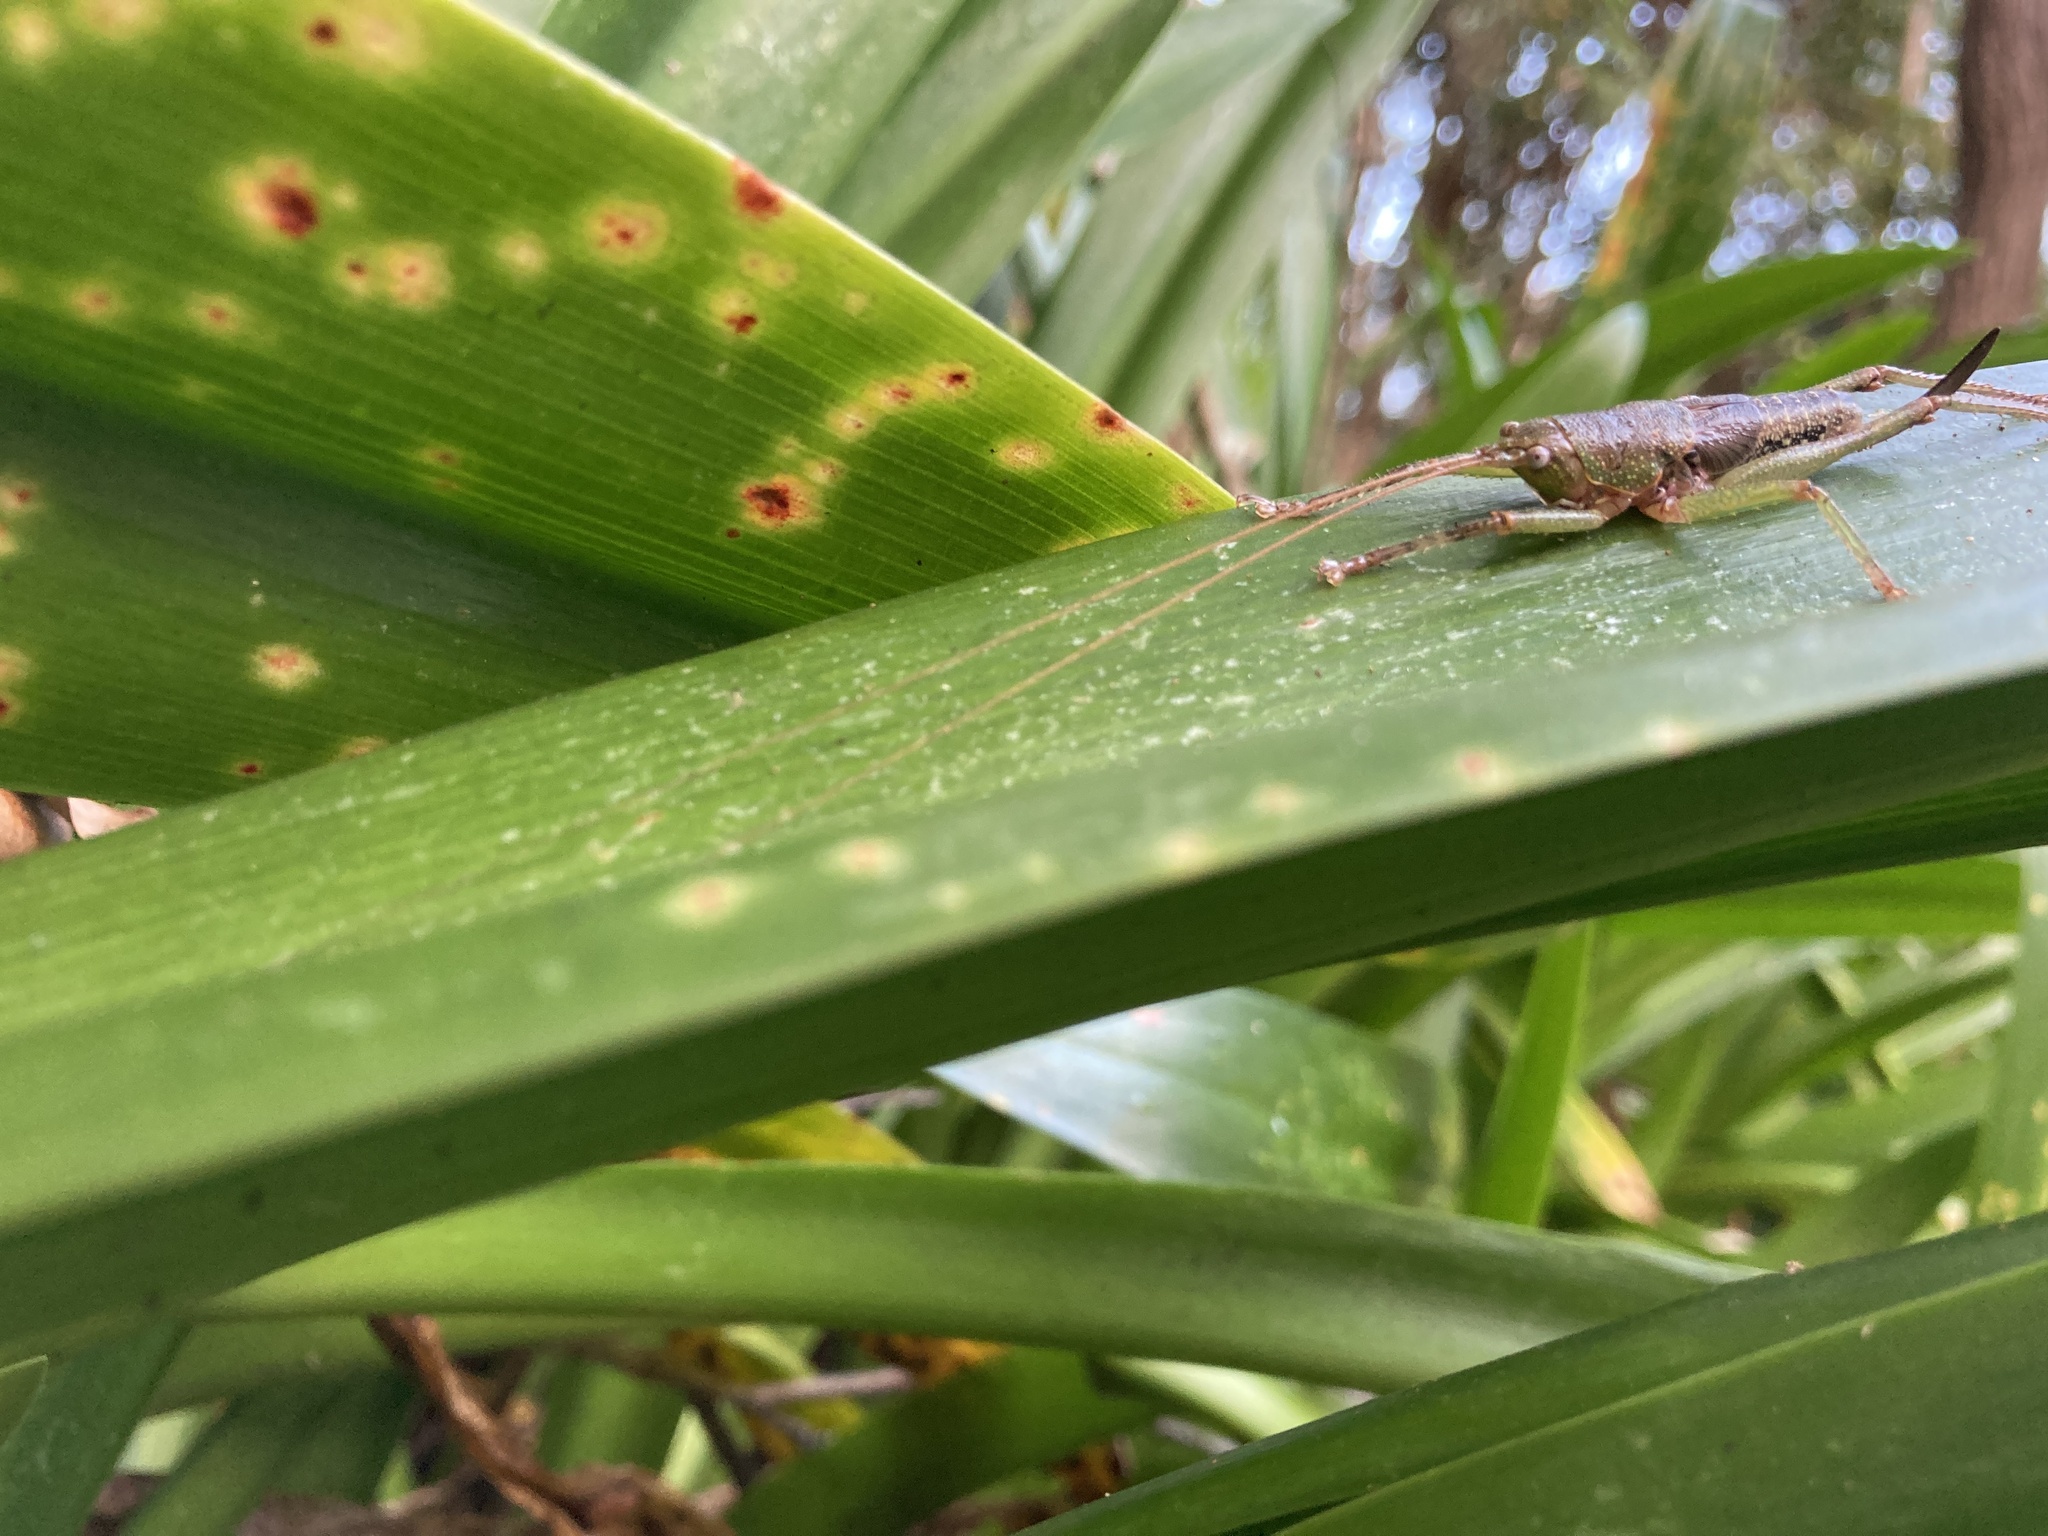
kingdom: Animalia
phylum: Arthropoda
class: Insecta
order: Orthoptera
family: Tettigoniidae
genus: Austrosalomona
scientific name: Austrosalomona destructor
